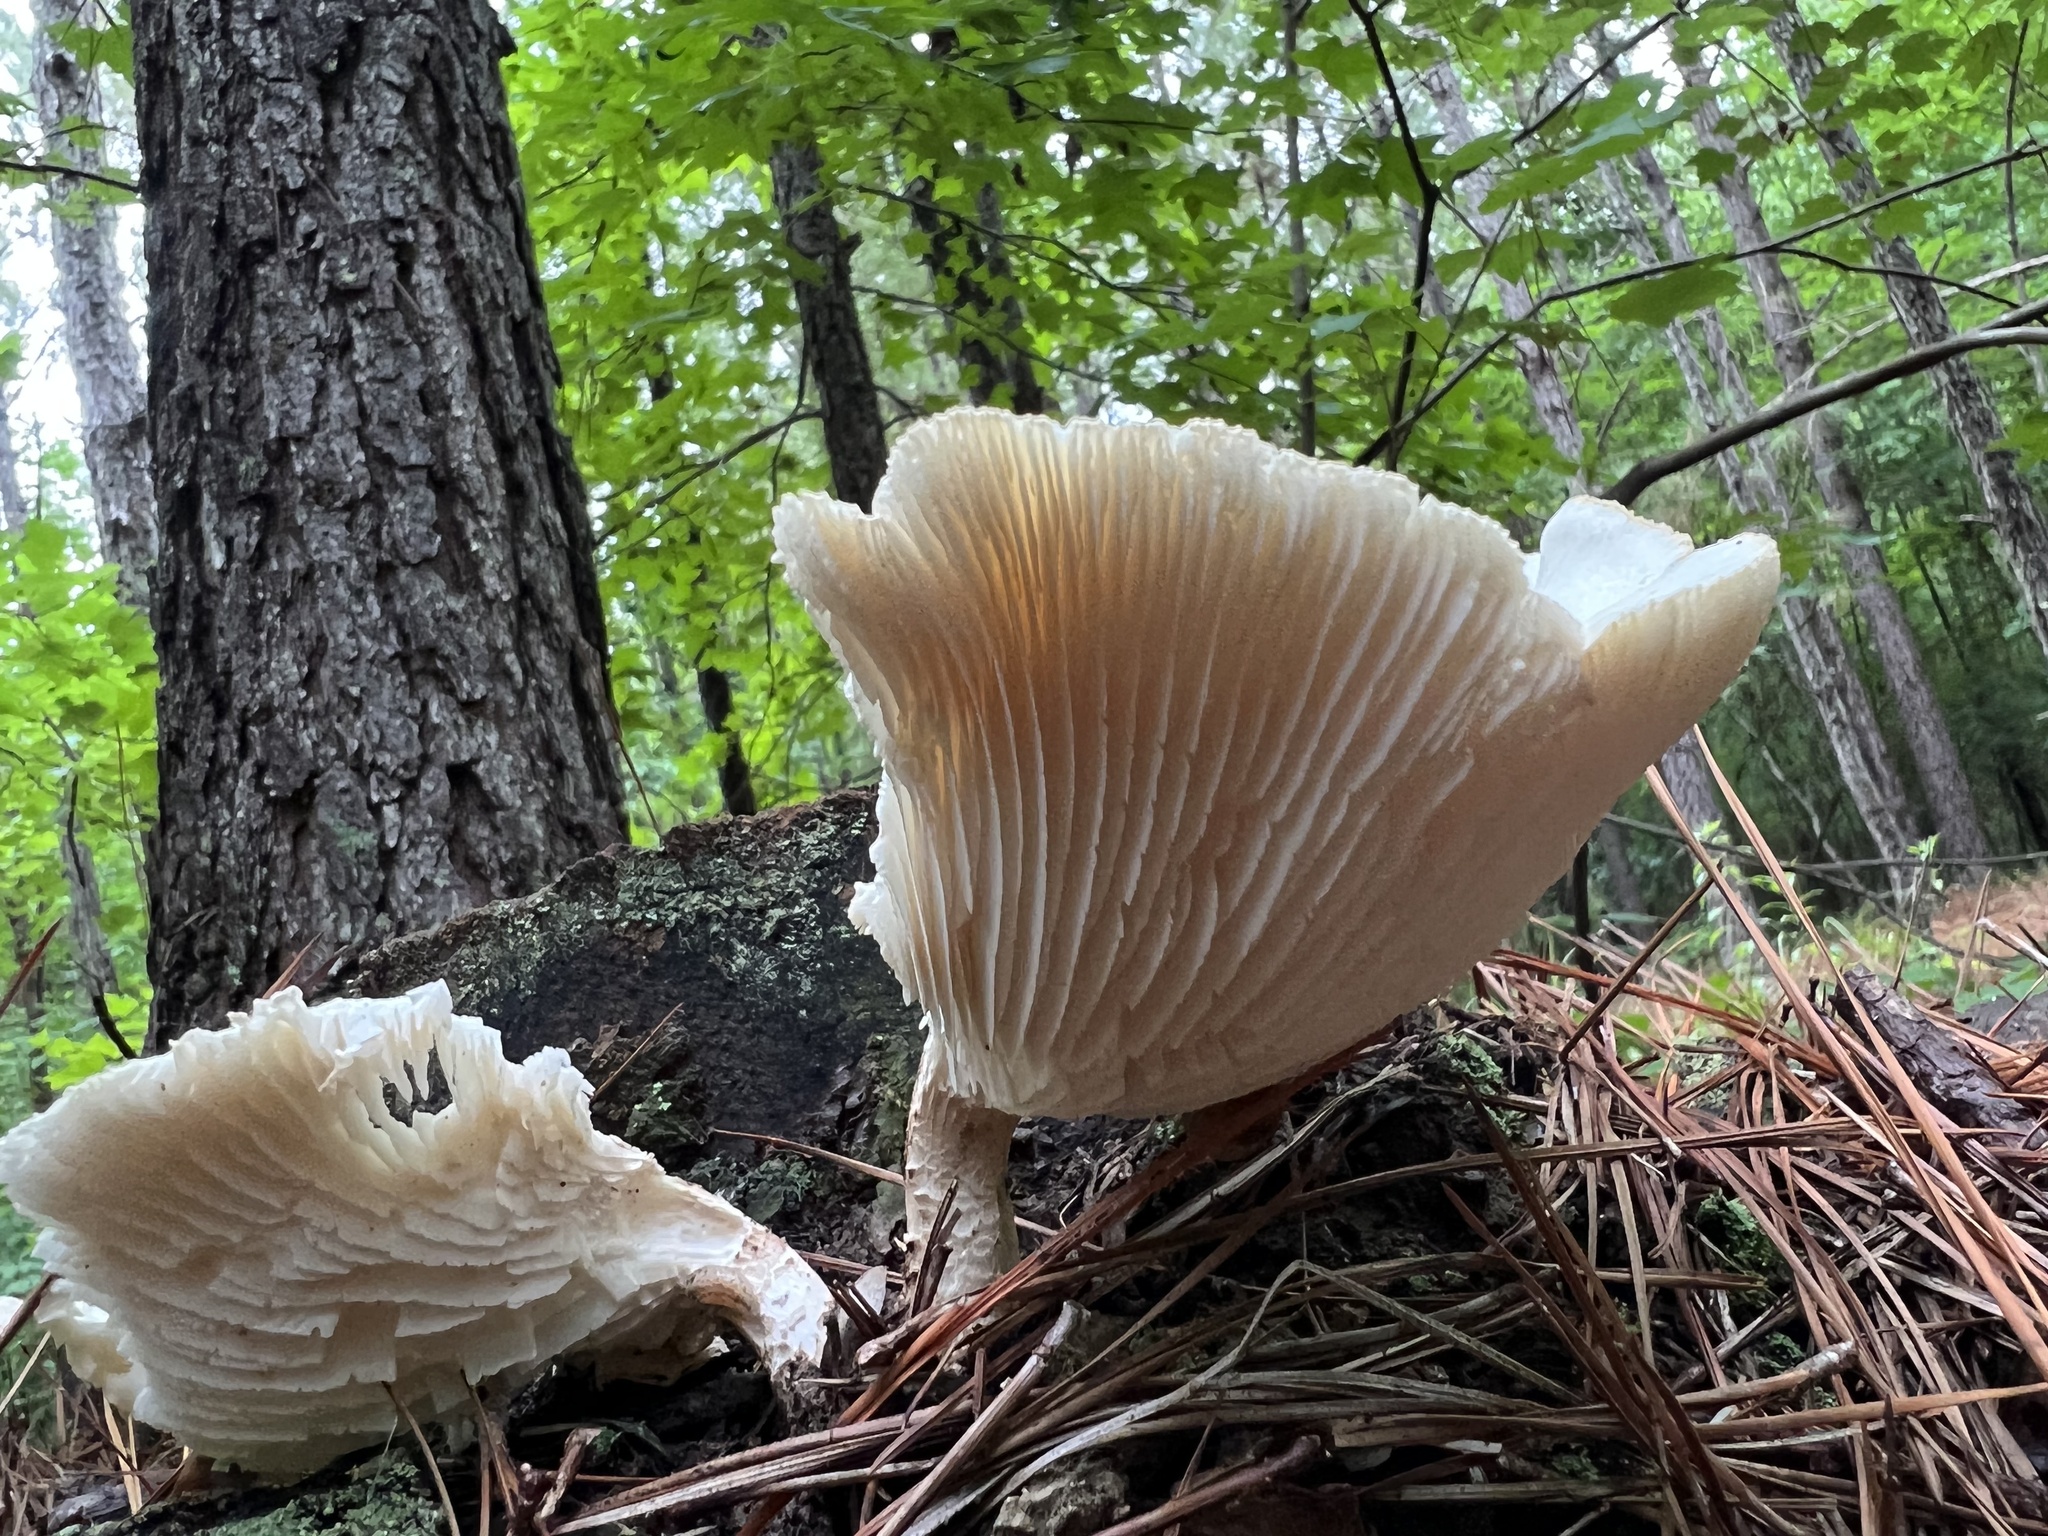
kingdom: Fungi
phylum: Basidiomycota
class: Agaricomycetes
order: Gloeophyllales
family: Gloeophyllaceae
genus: Neolentinus
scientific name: Neolentinus lepideus
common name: Scaly sawgill
